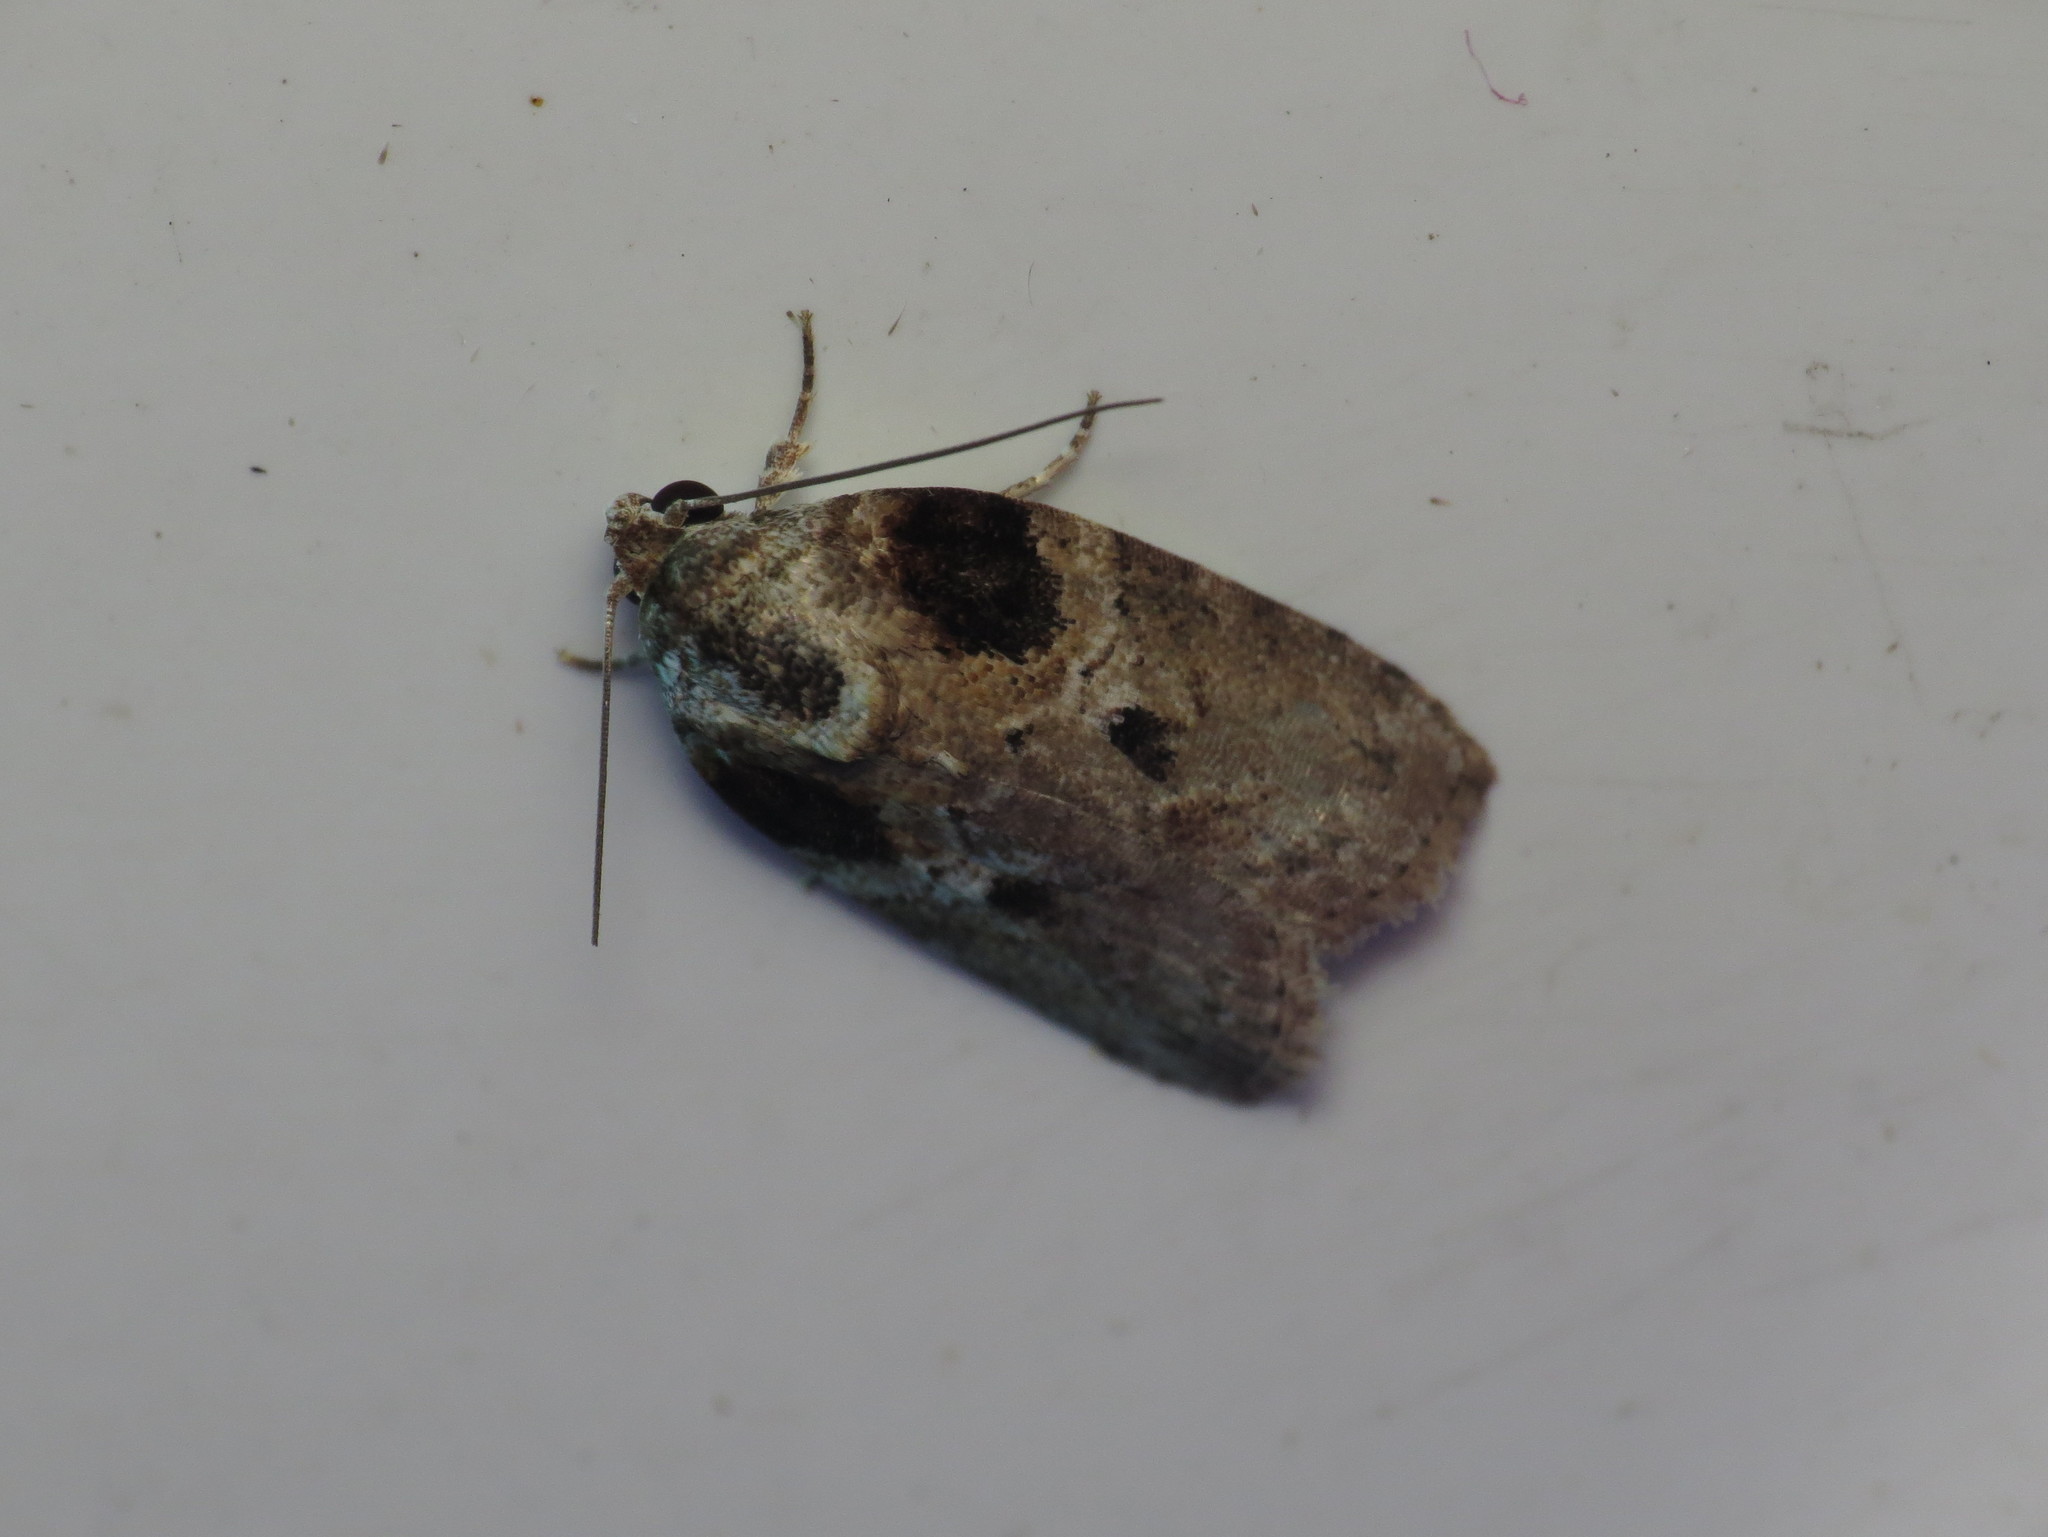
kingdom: Animalia
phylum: Arthropoda
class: Insecta
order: Lepidoptera
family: Nolidae
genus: Garella
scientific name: Garella scoparioides
